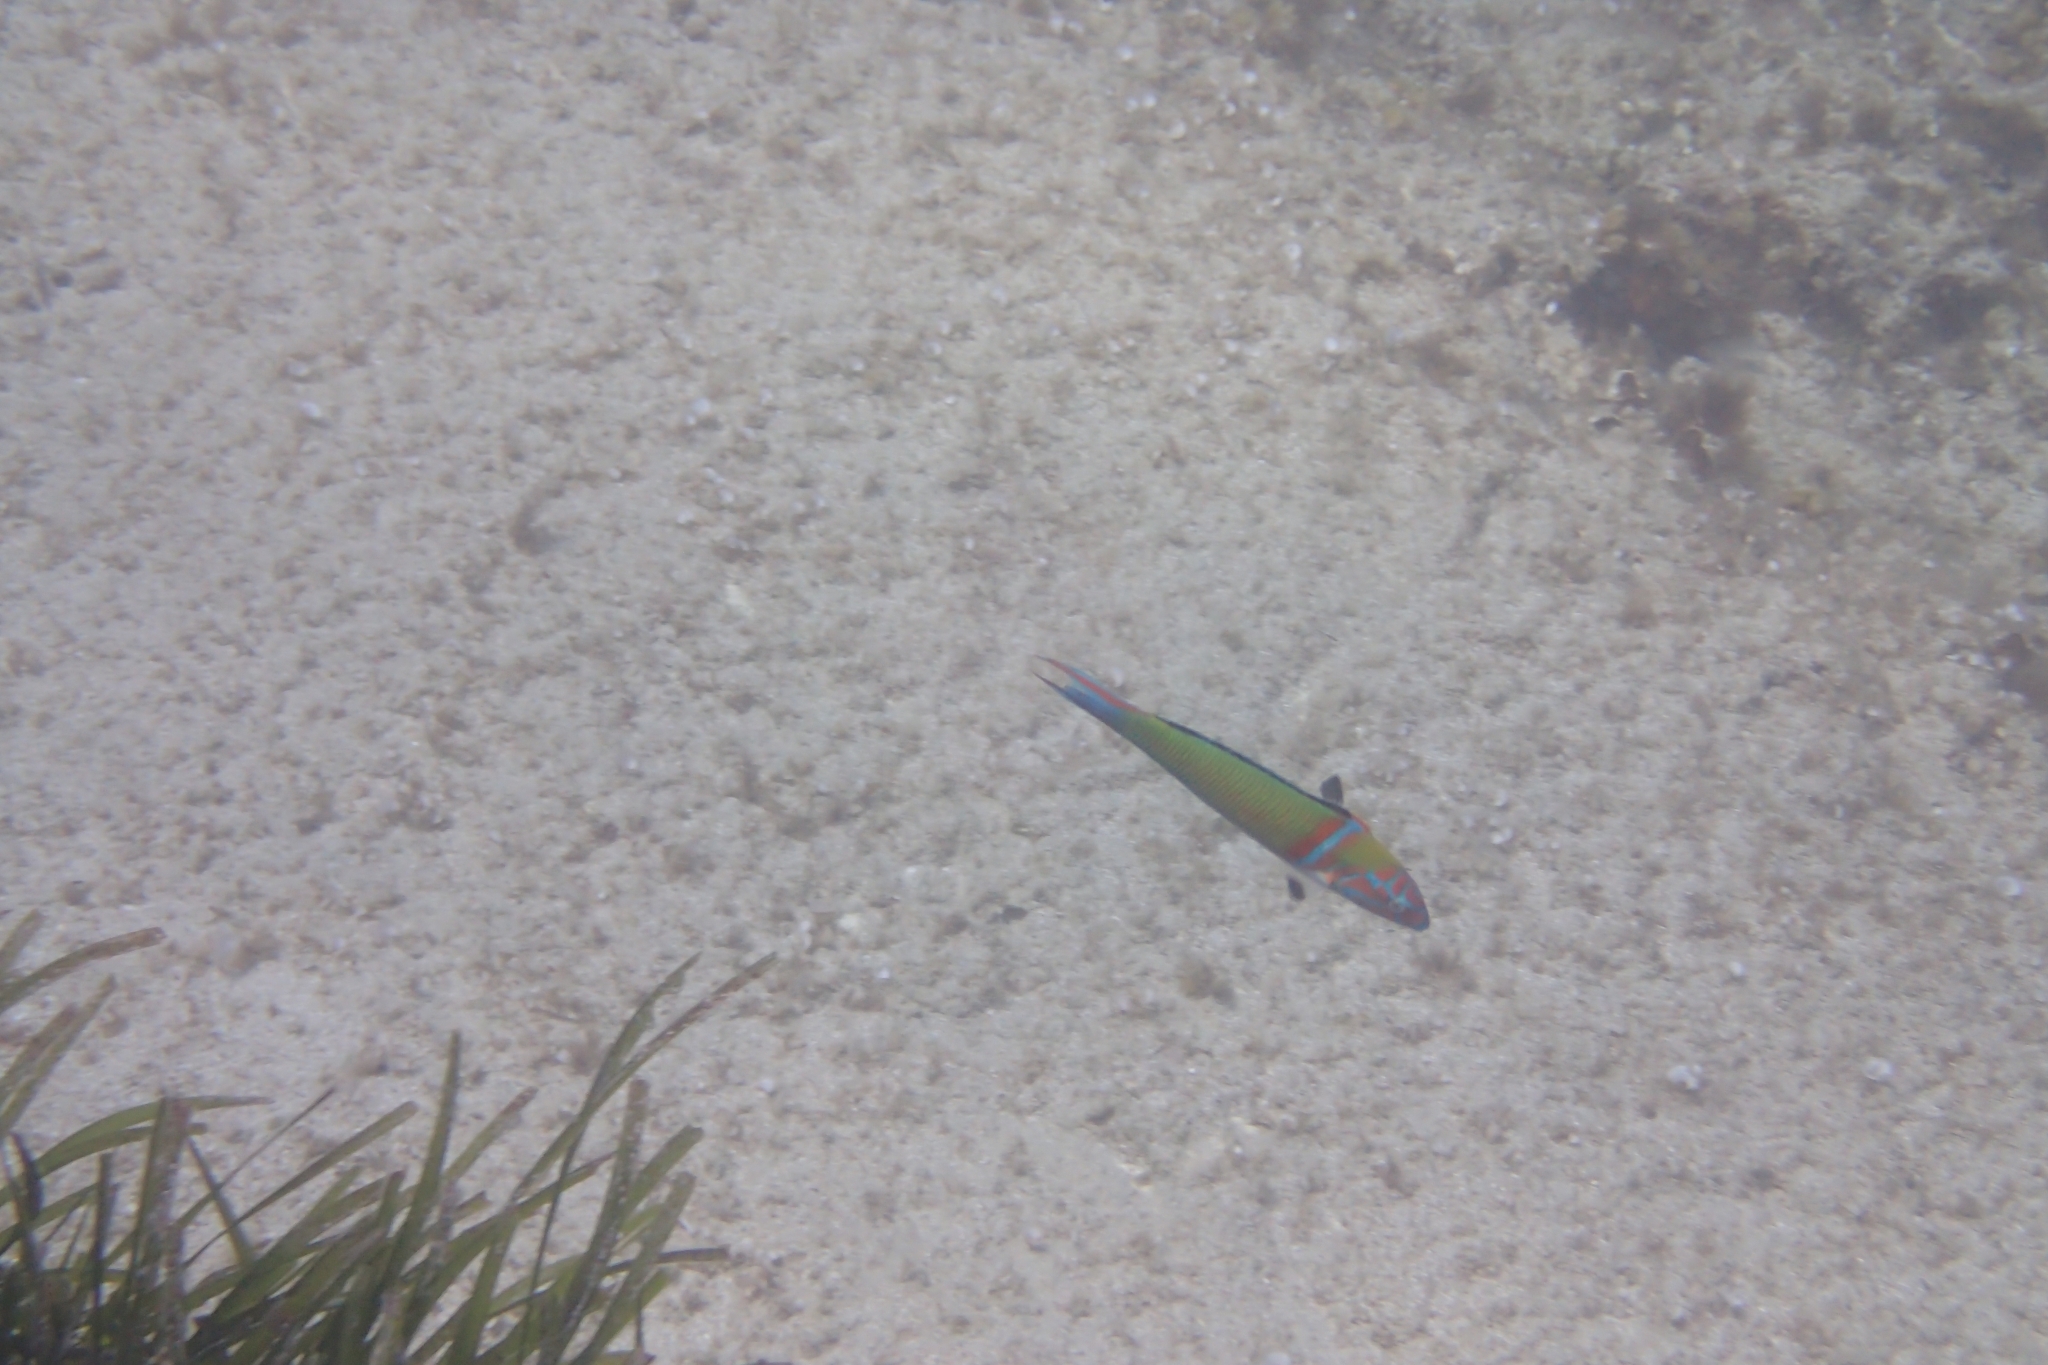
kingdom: Animalia
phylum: Chordata
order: Perciformes
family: Labridae
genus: Thalassoma
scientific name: Thalassoma pavo
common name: Ornate wrasse
